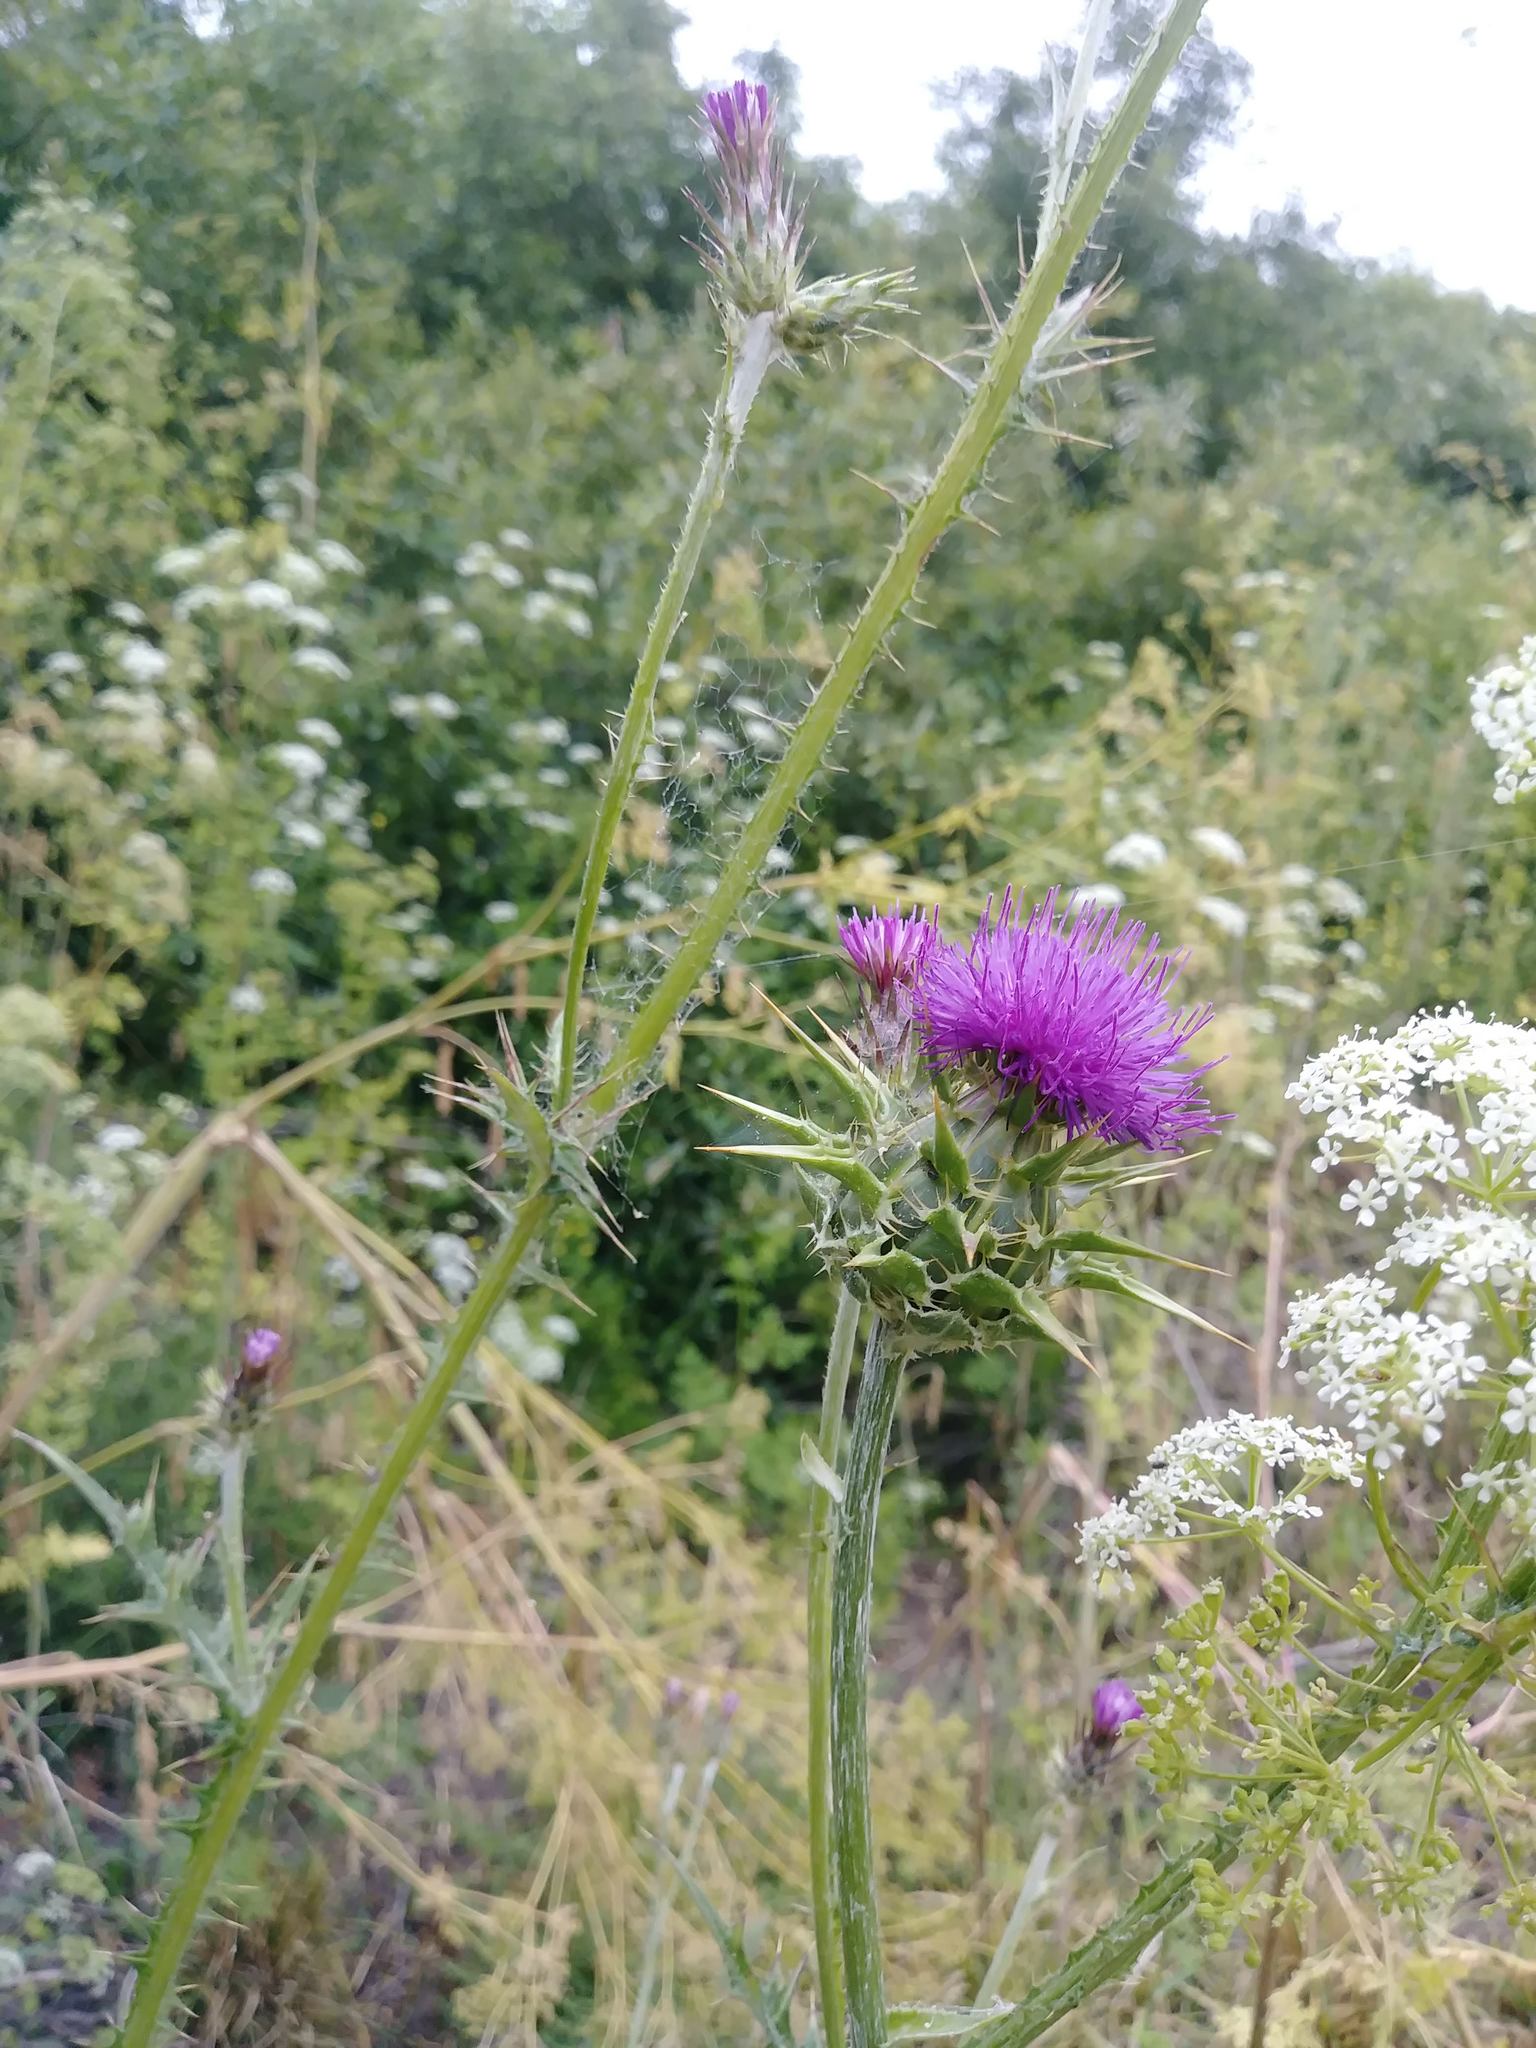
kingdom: Plantae
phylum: Tracheophyta
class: Magnoliopsida
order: Asterales
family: Asteraceae
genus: Silybum
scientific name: Silybum marianum
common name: Milk thistle
